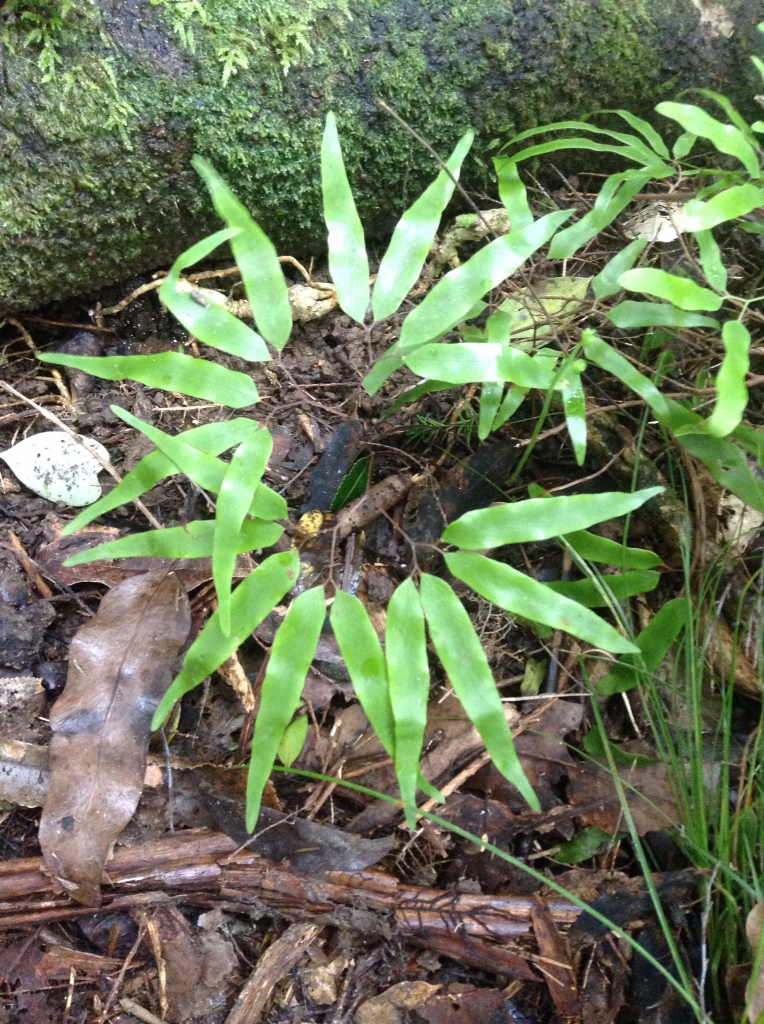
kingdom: Plantae
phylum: Tracheophyta
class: Polypodiopsida
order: Schizaeales
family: Lygodiaceae
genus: Lygodium
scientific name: Lygodium articulatum
